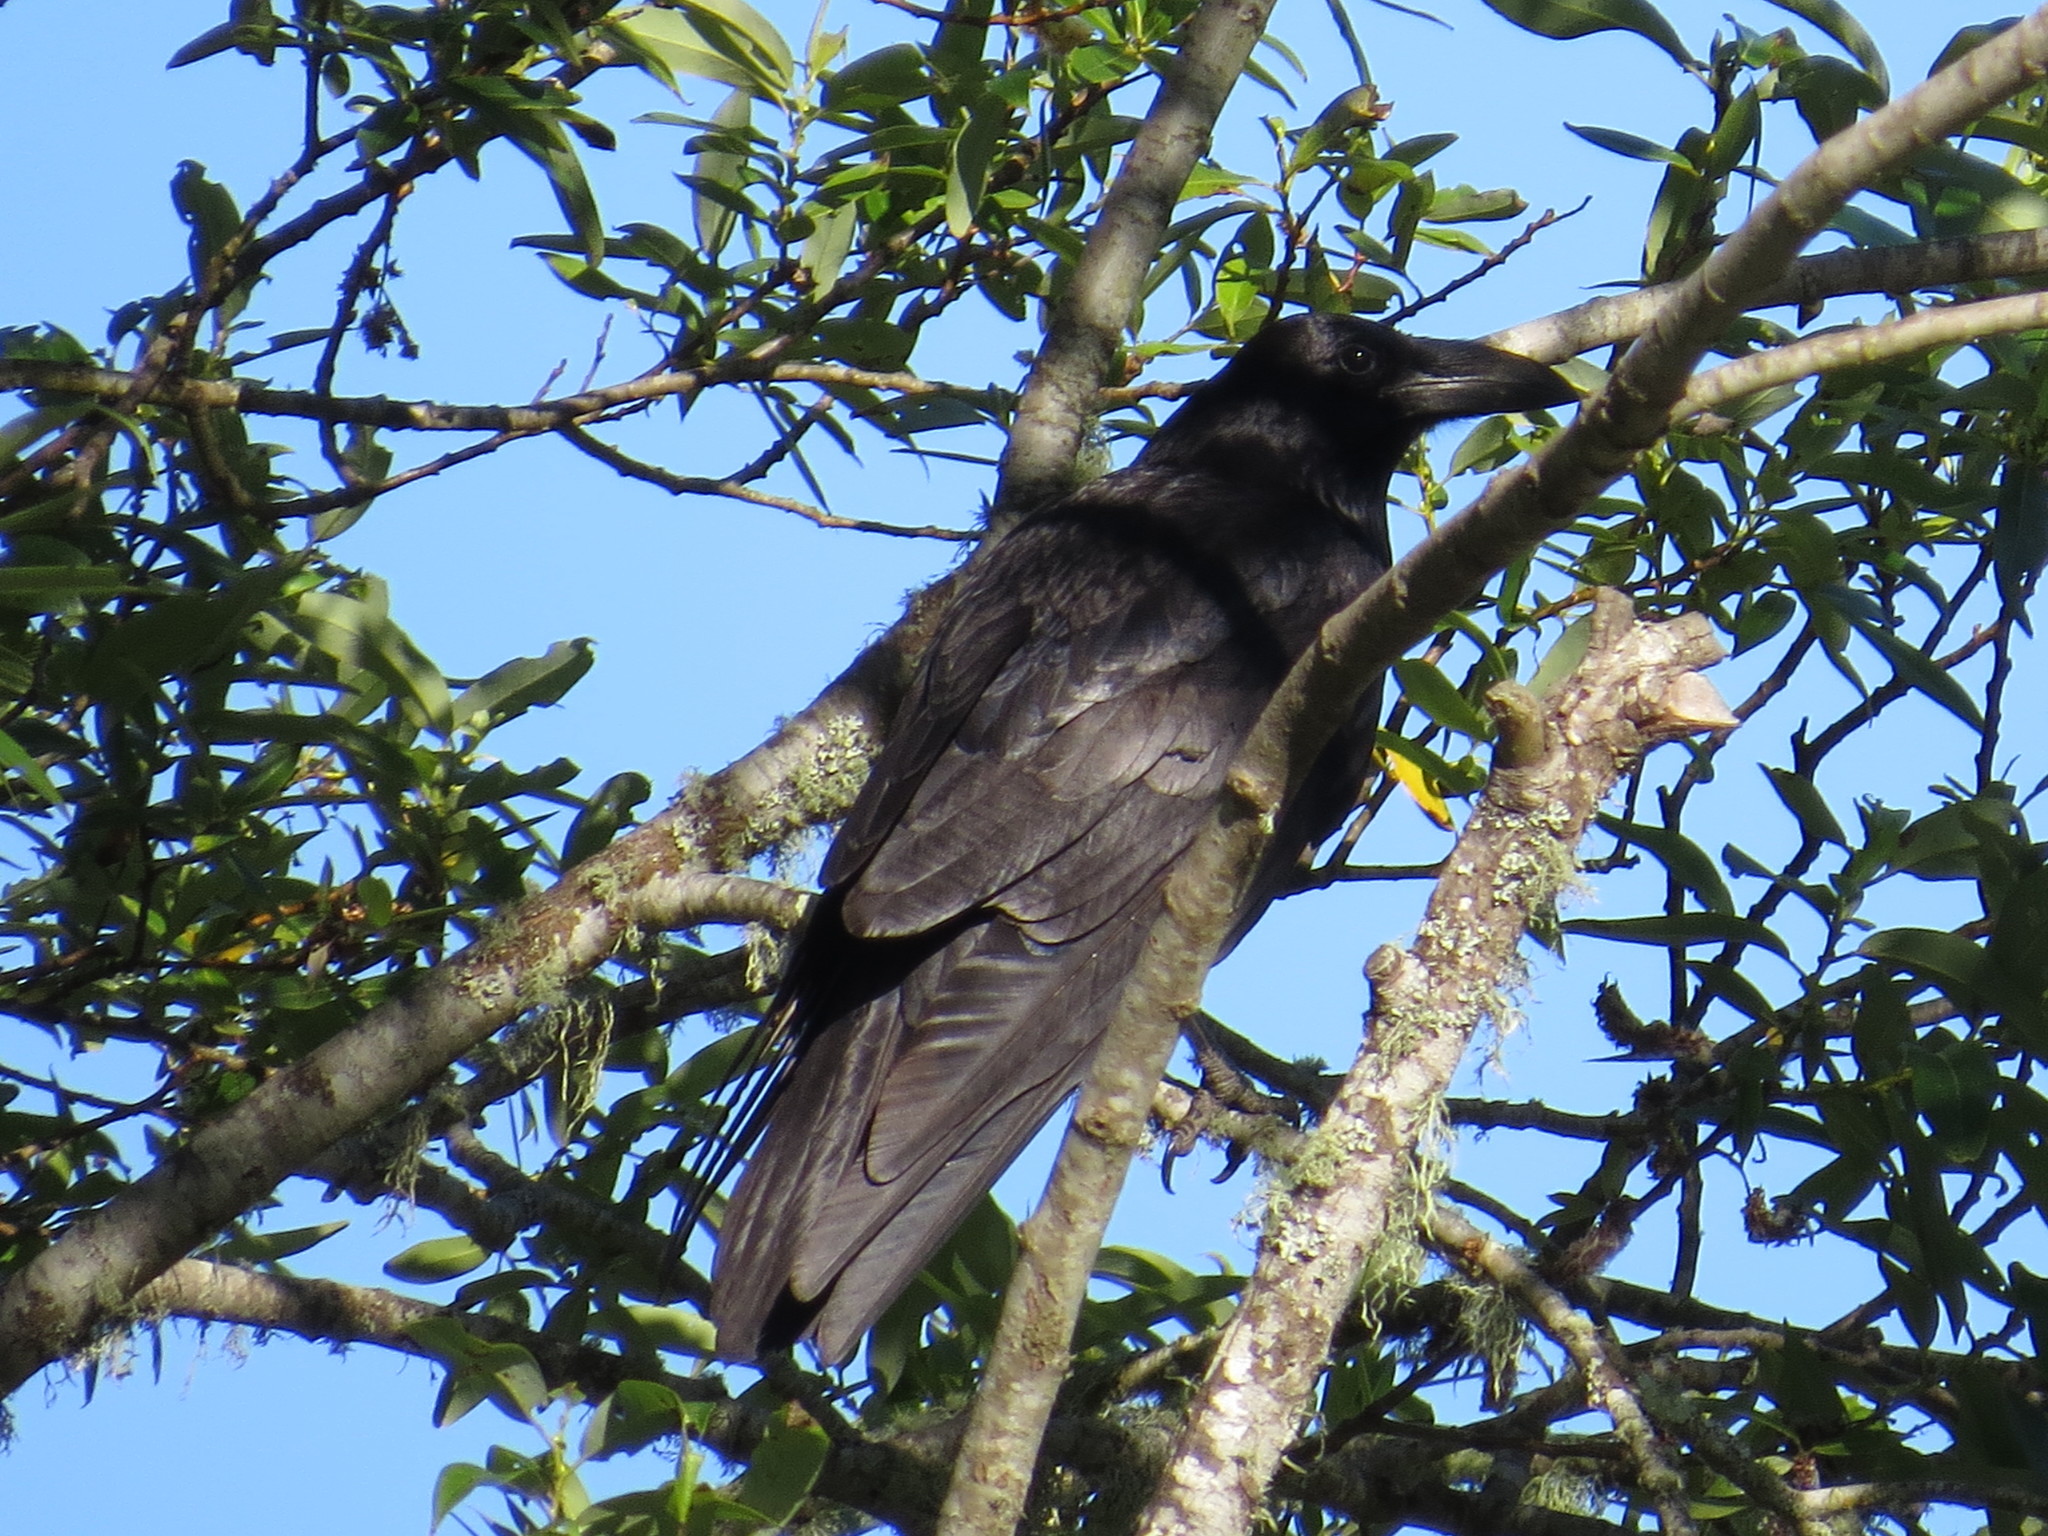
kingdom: Animalia
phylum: Chordata
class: Aves
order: Passeriformes
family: Corvidae
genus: Corvus
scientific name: Corvus corax
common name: Common raven
